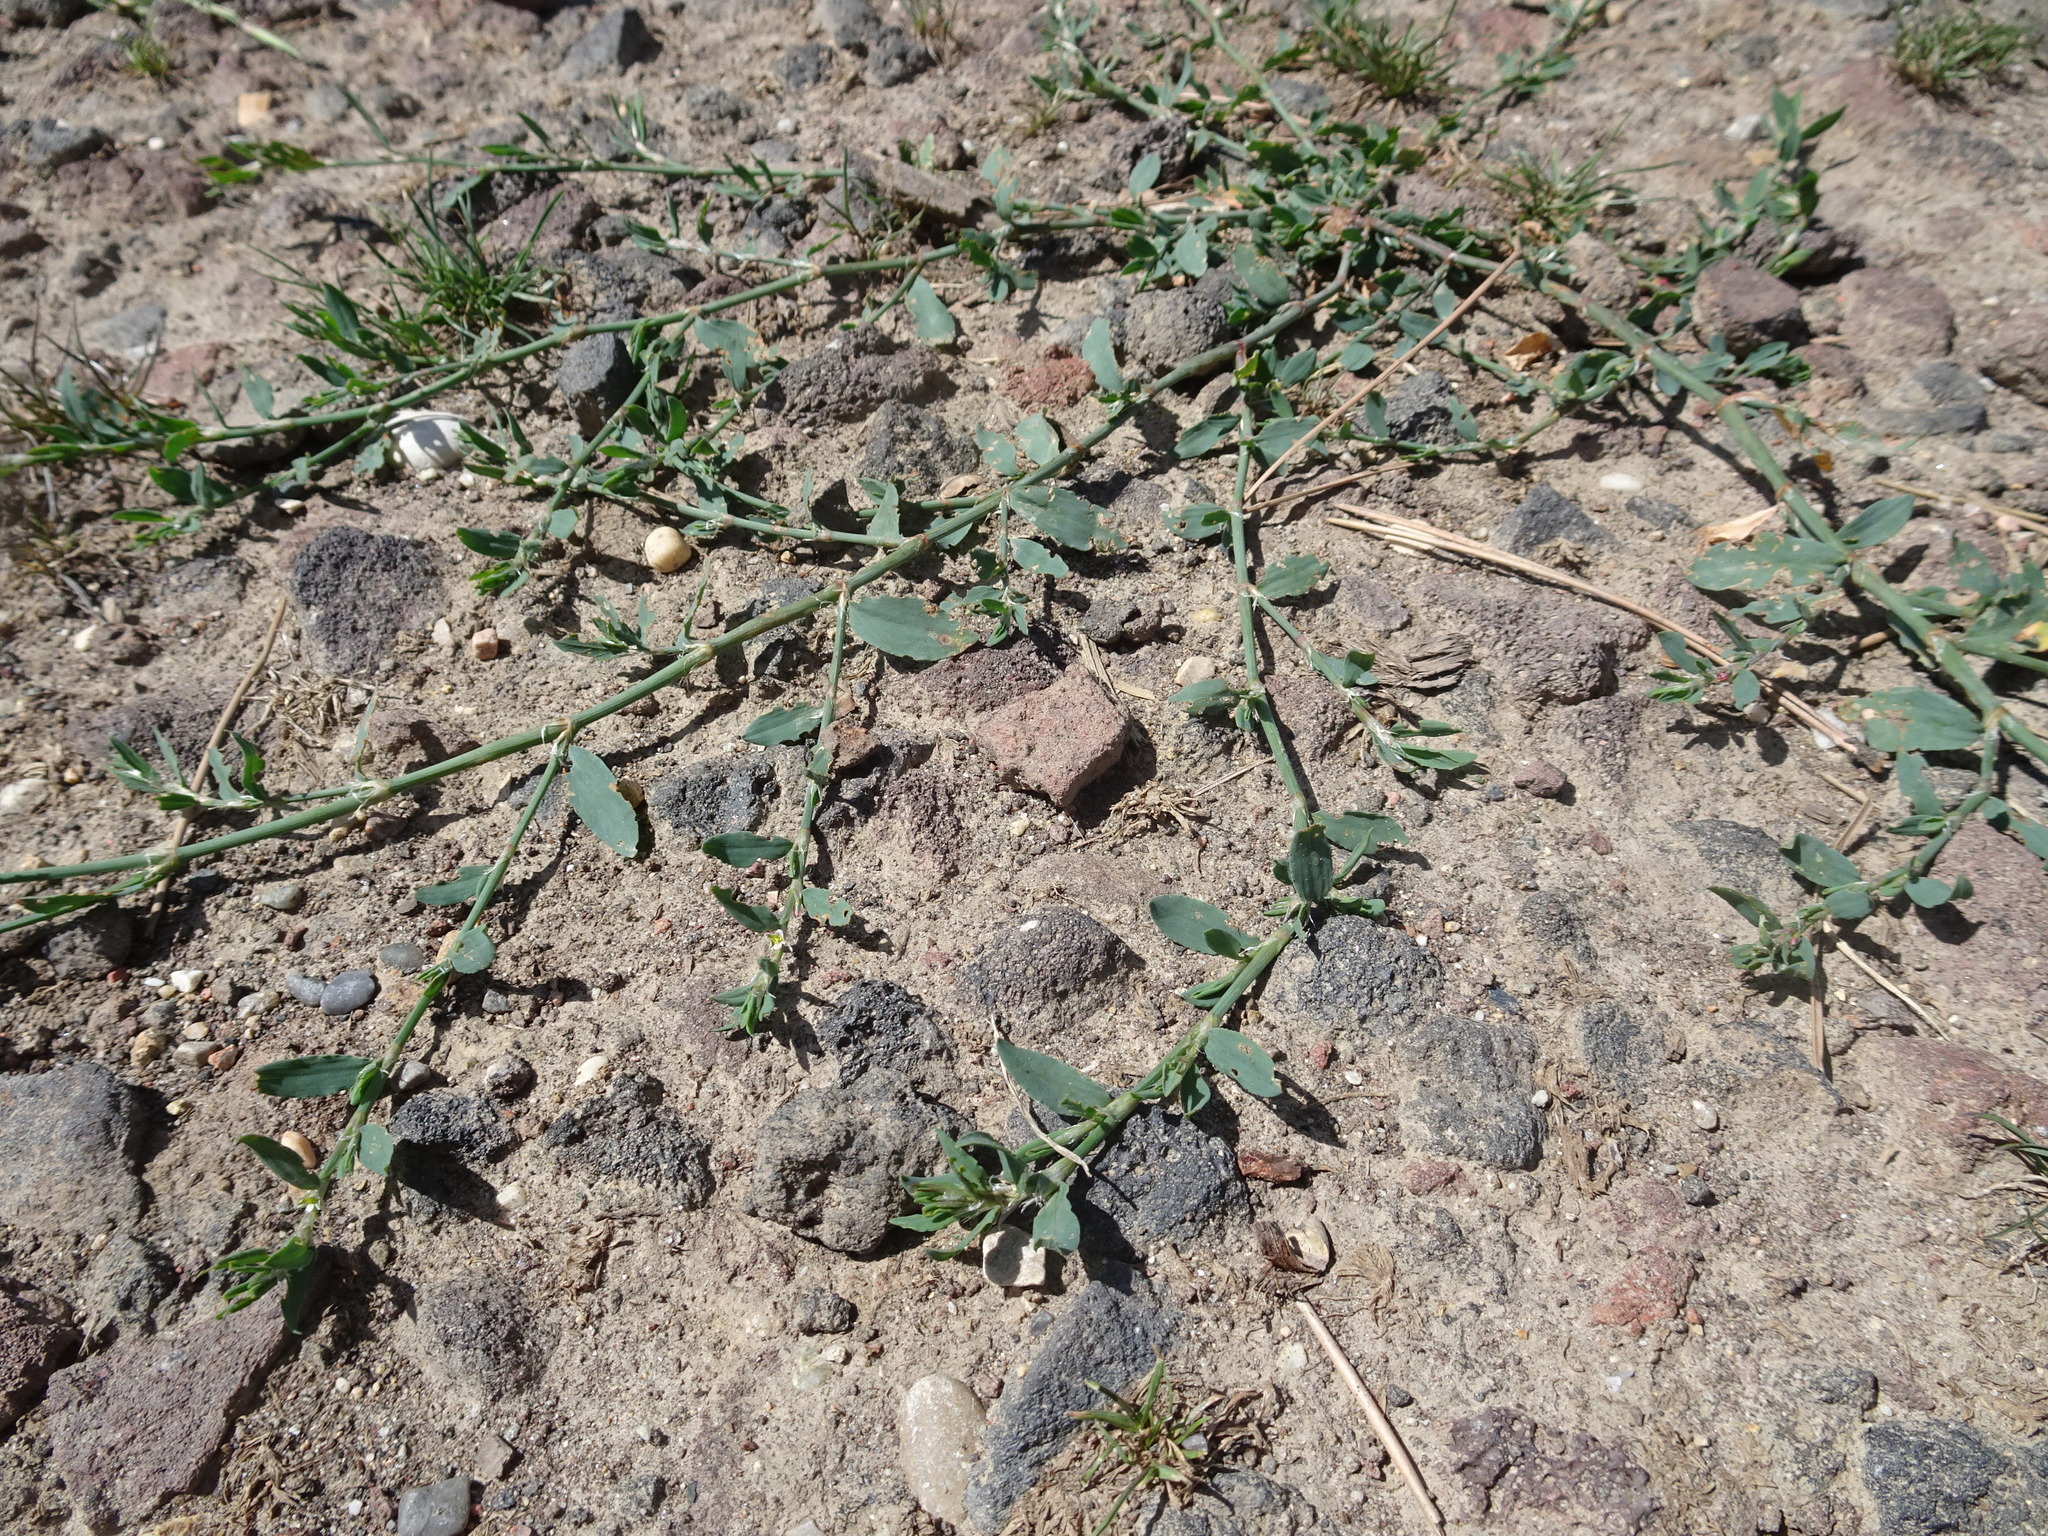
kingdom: Plantae
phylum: Tracheophyta
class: Magnoliopsida
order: Caryophyllales
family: Polygonaceae
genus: Polygonum
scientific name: Polygonum aviculare
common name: Prostrate knotweed
